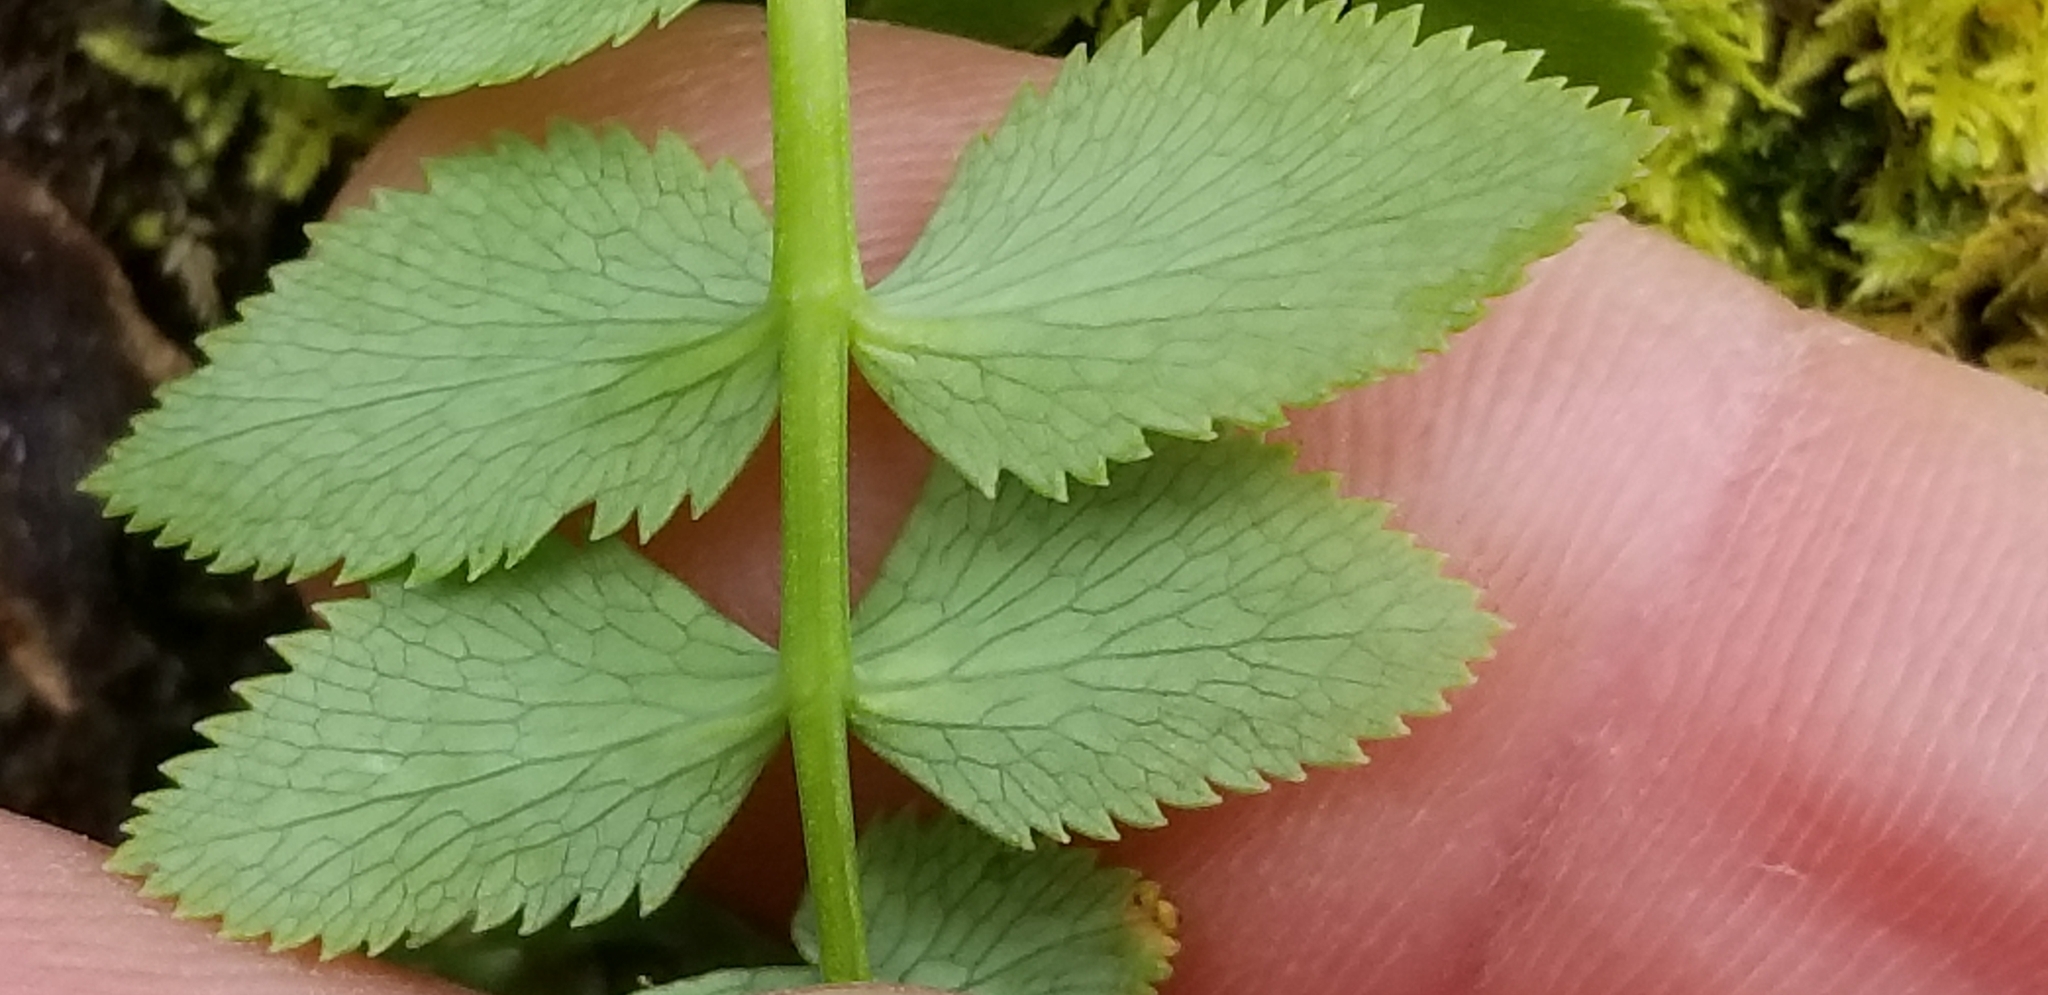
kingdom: Plantae
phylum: Tracheophyta
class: Magnoliopsida
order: Apiales
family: Apiaceae
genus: Gingidia
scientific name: Gingidia montana
